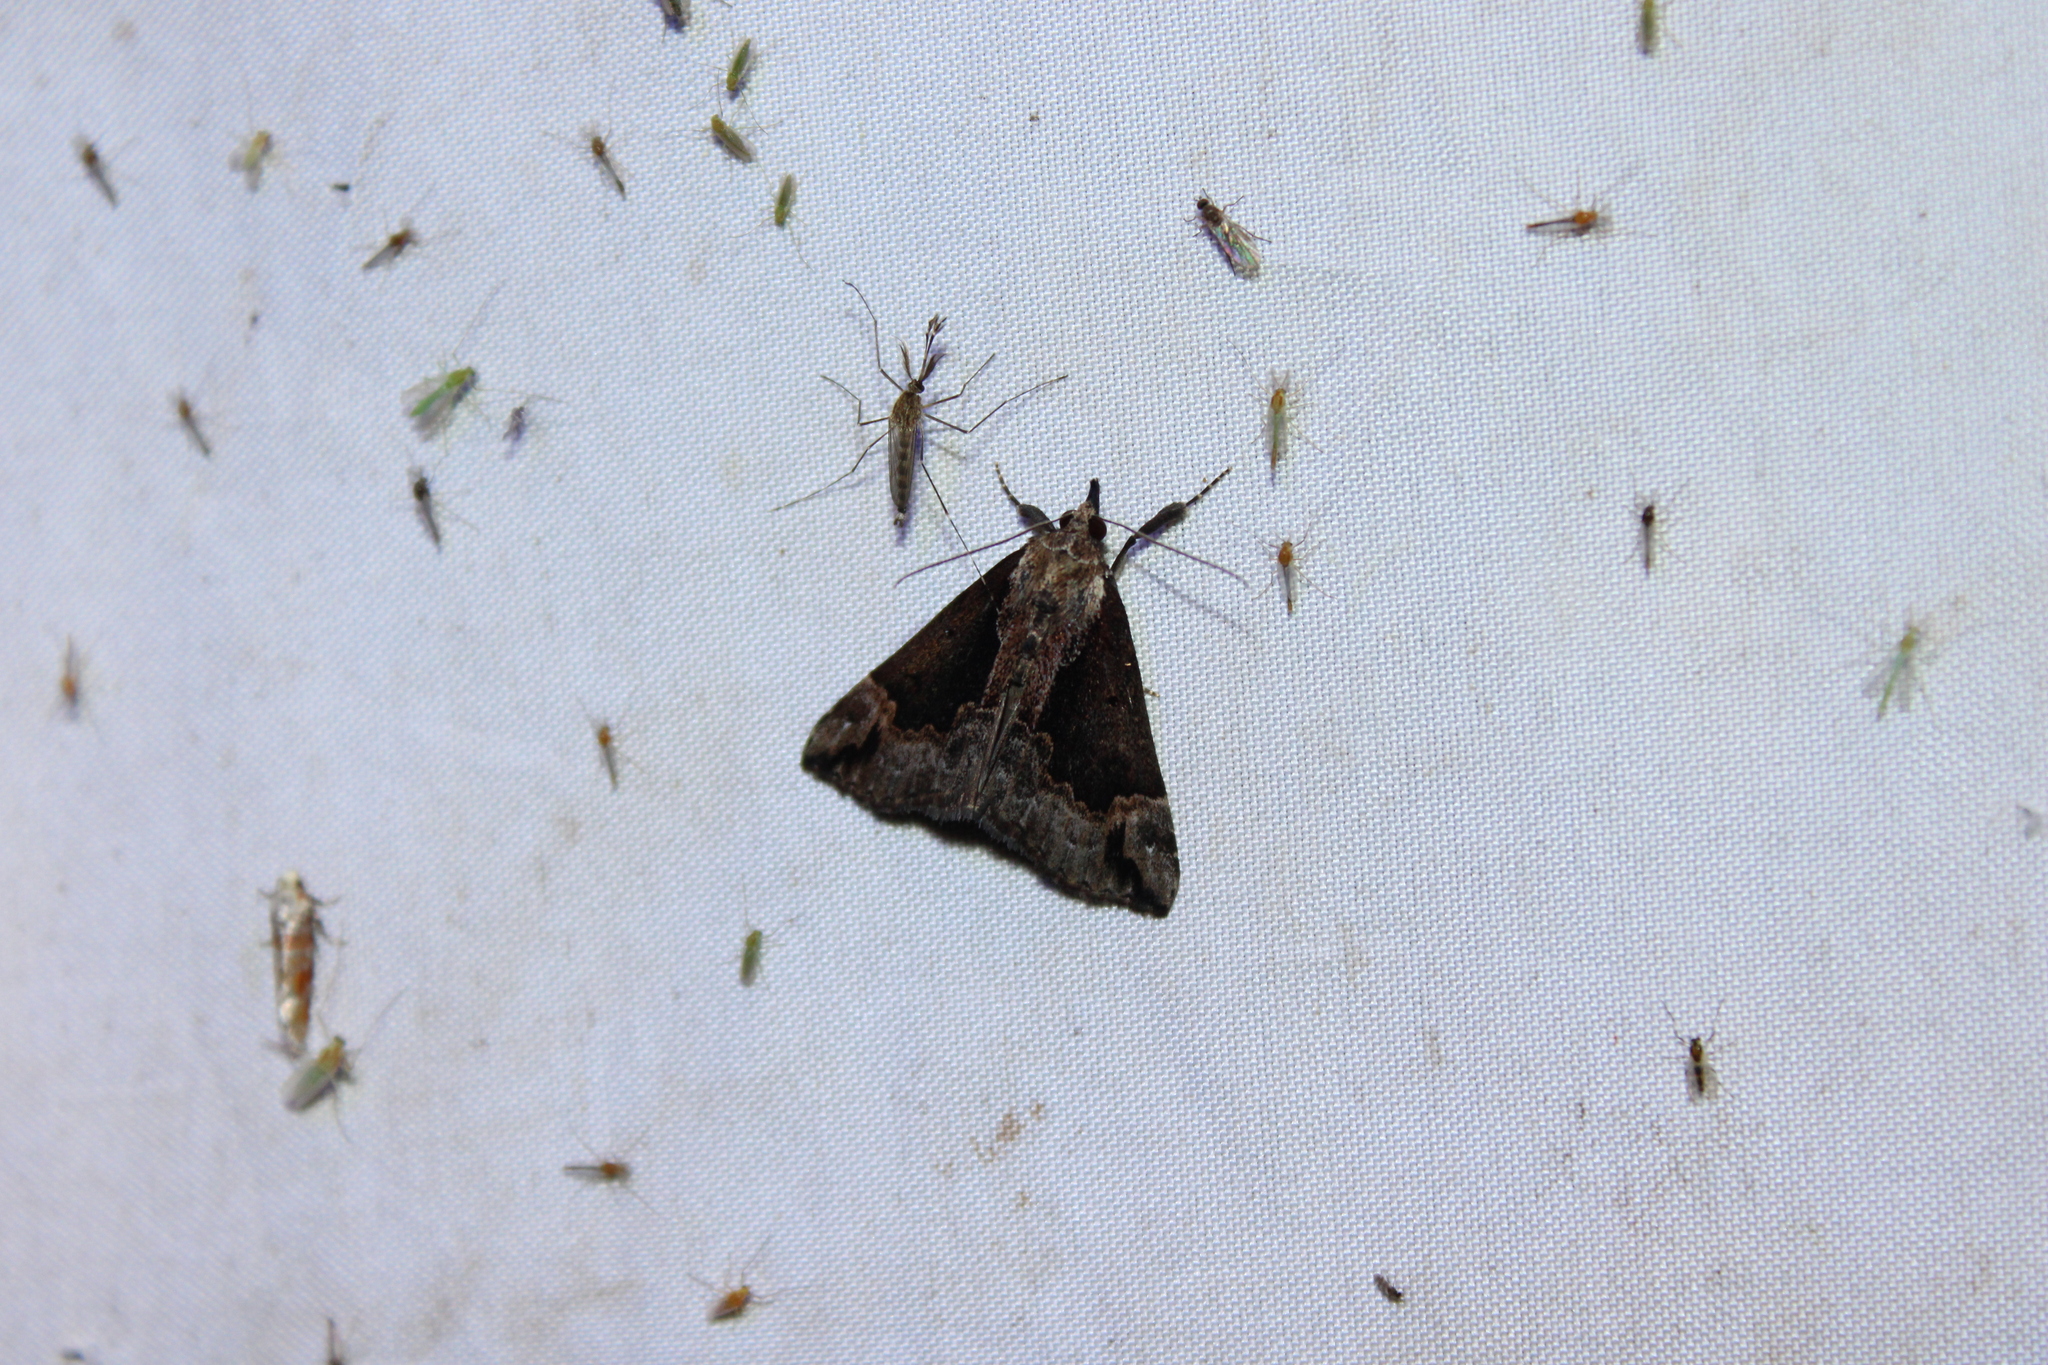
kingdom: Animalia
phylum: Arthropoda
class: Insecta
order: Lepidoptera
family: Erebidae
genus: Hypena
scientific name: Hypena baltimoralis
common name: Baltimore snout
